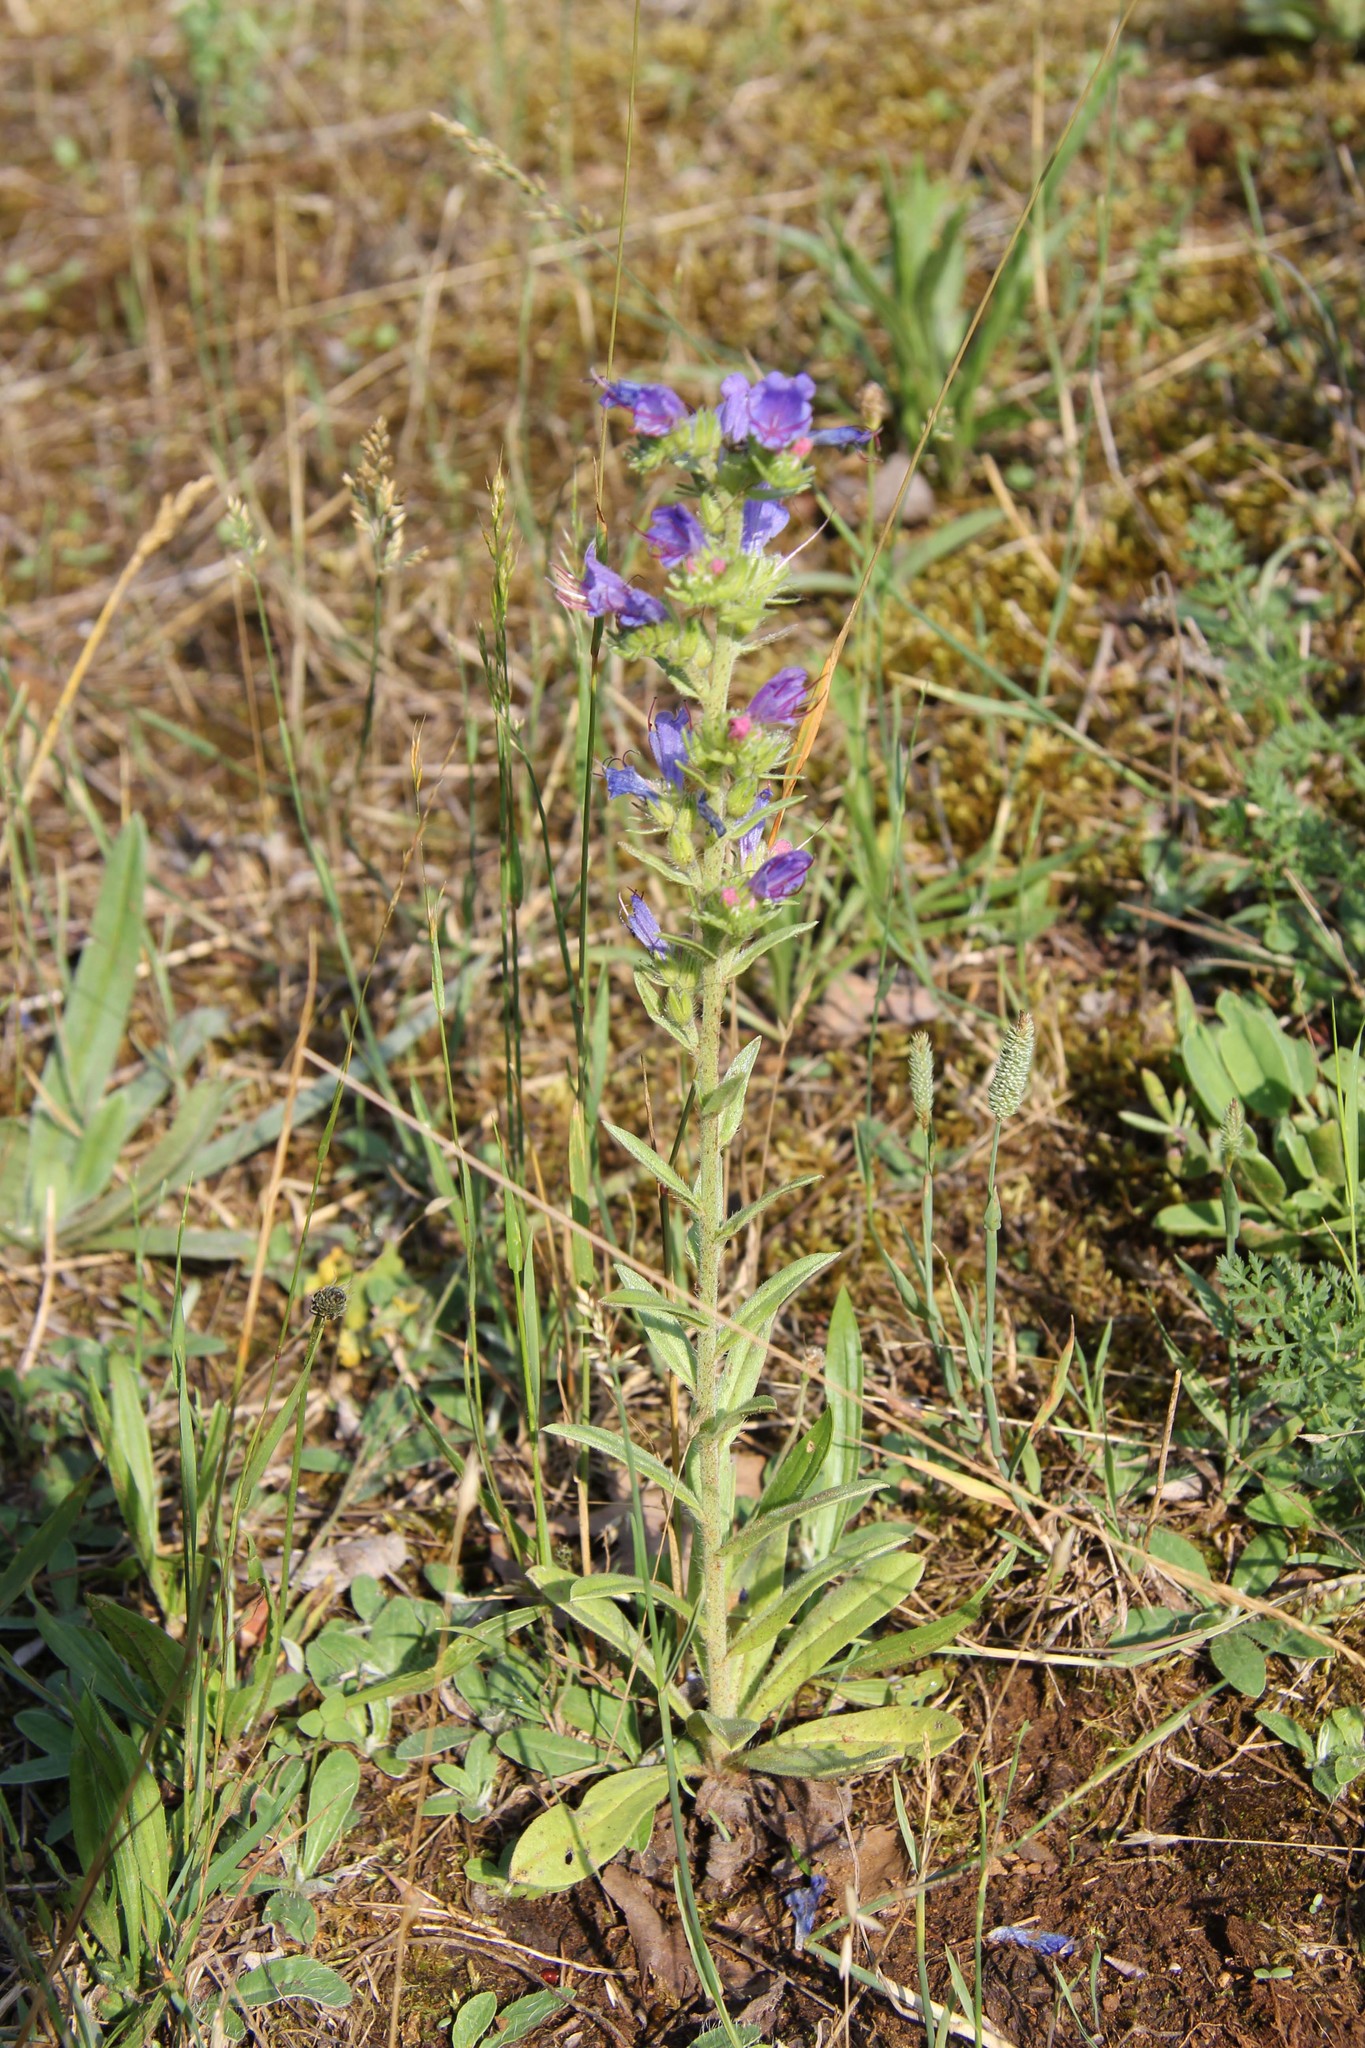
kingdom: Plantae
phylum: Tracheophyta
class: Magnoliopsida
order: Boraginales
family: Boraginaceae
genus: Echium
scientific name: Echium vulgare
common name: Common viper's bugloss
